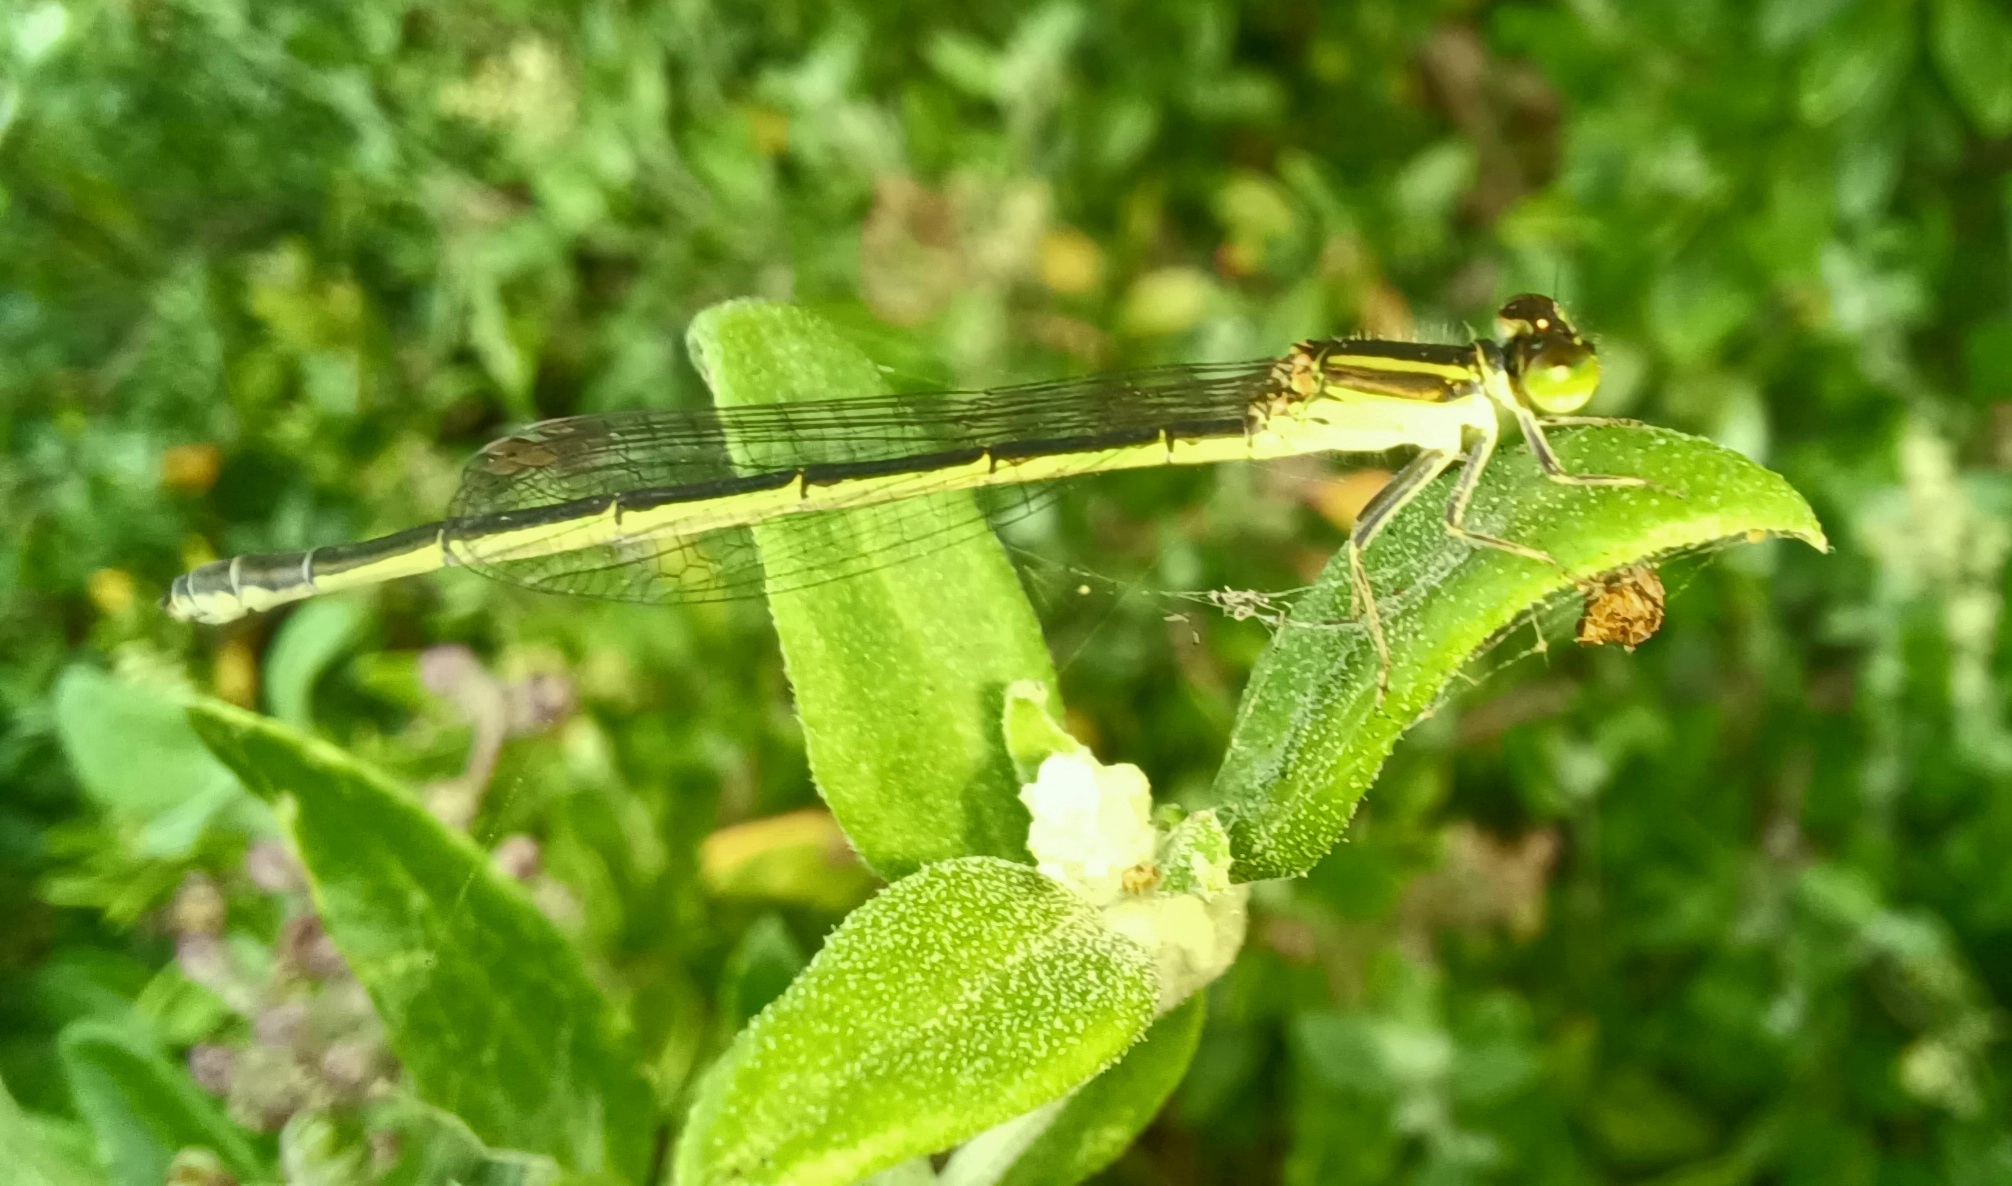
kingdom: Animalia
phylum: Arthropoda
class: Insecta
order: Odonata
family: Coenagrionidae
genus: Ischnura
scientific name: Ischnura aurora
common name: Gossamer damselfly
